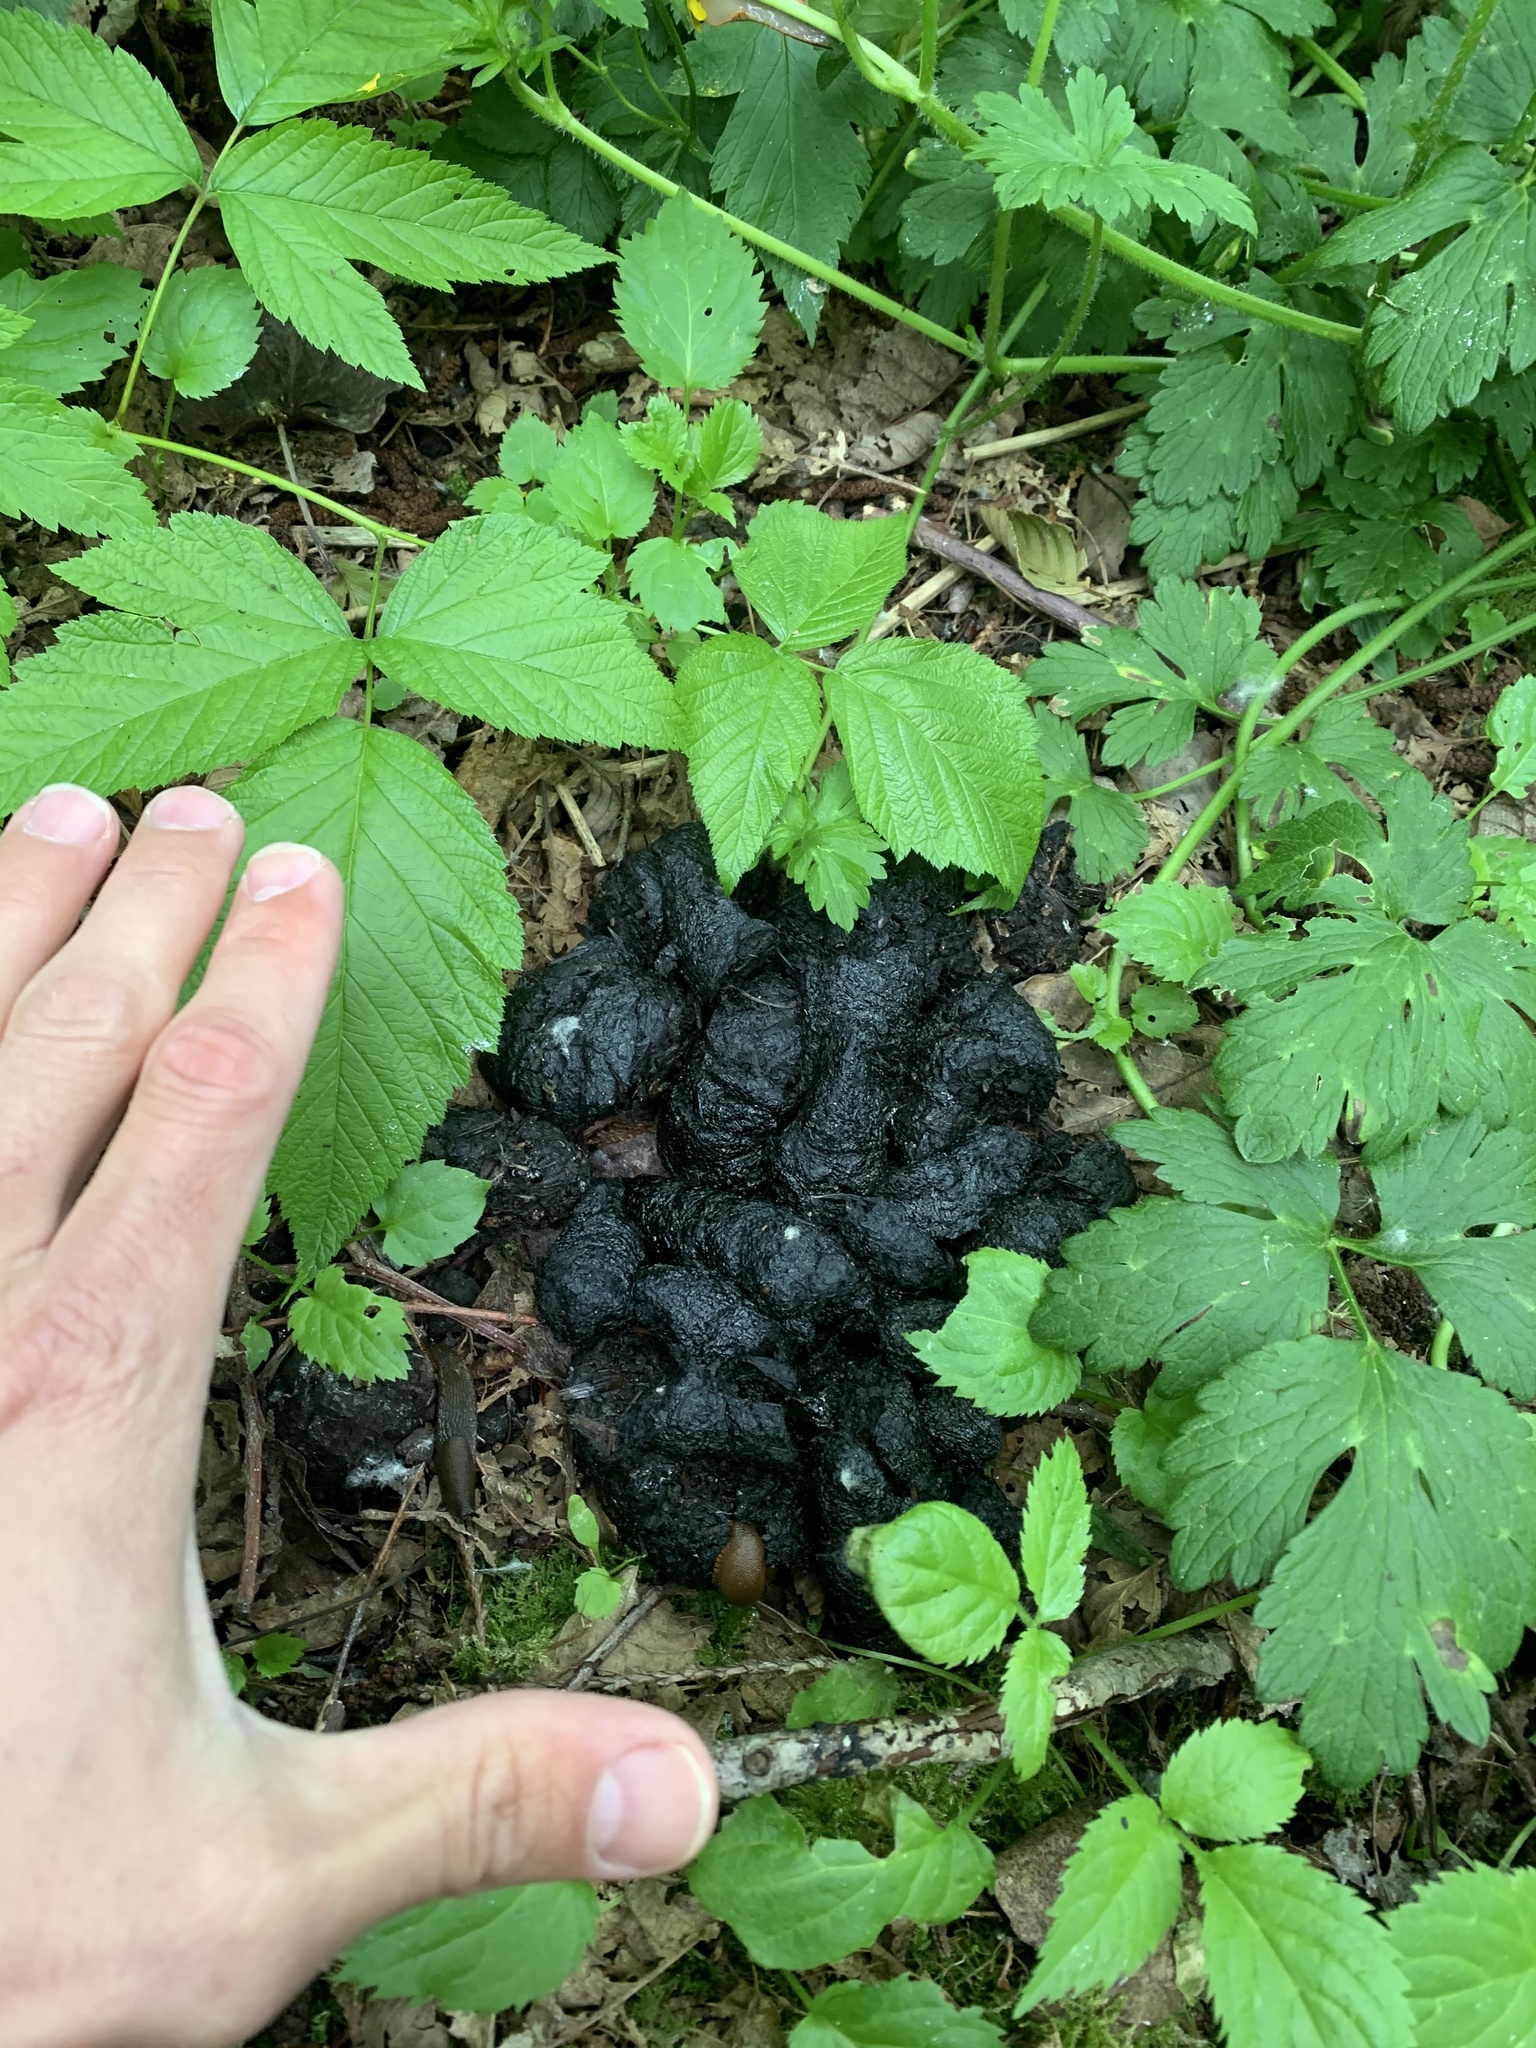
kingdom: Animalia
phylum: Chordata
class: Mammalia
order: Carnivora
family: Ursidae
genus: Ursus
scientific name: Ursus americanus
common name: American black bear
